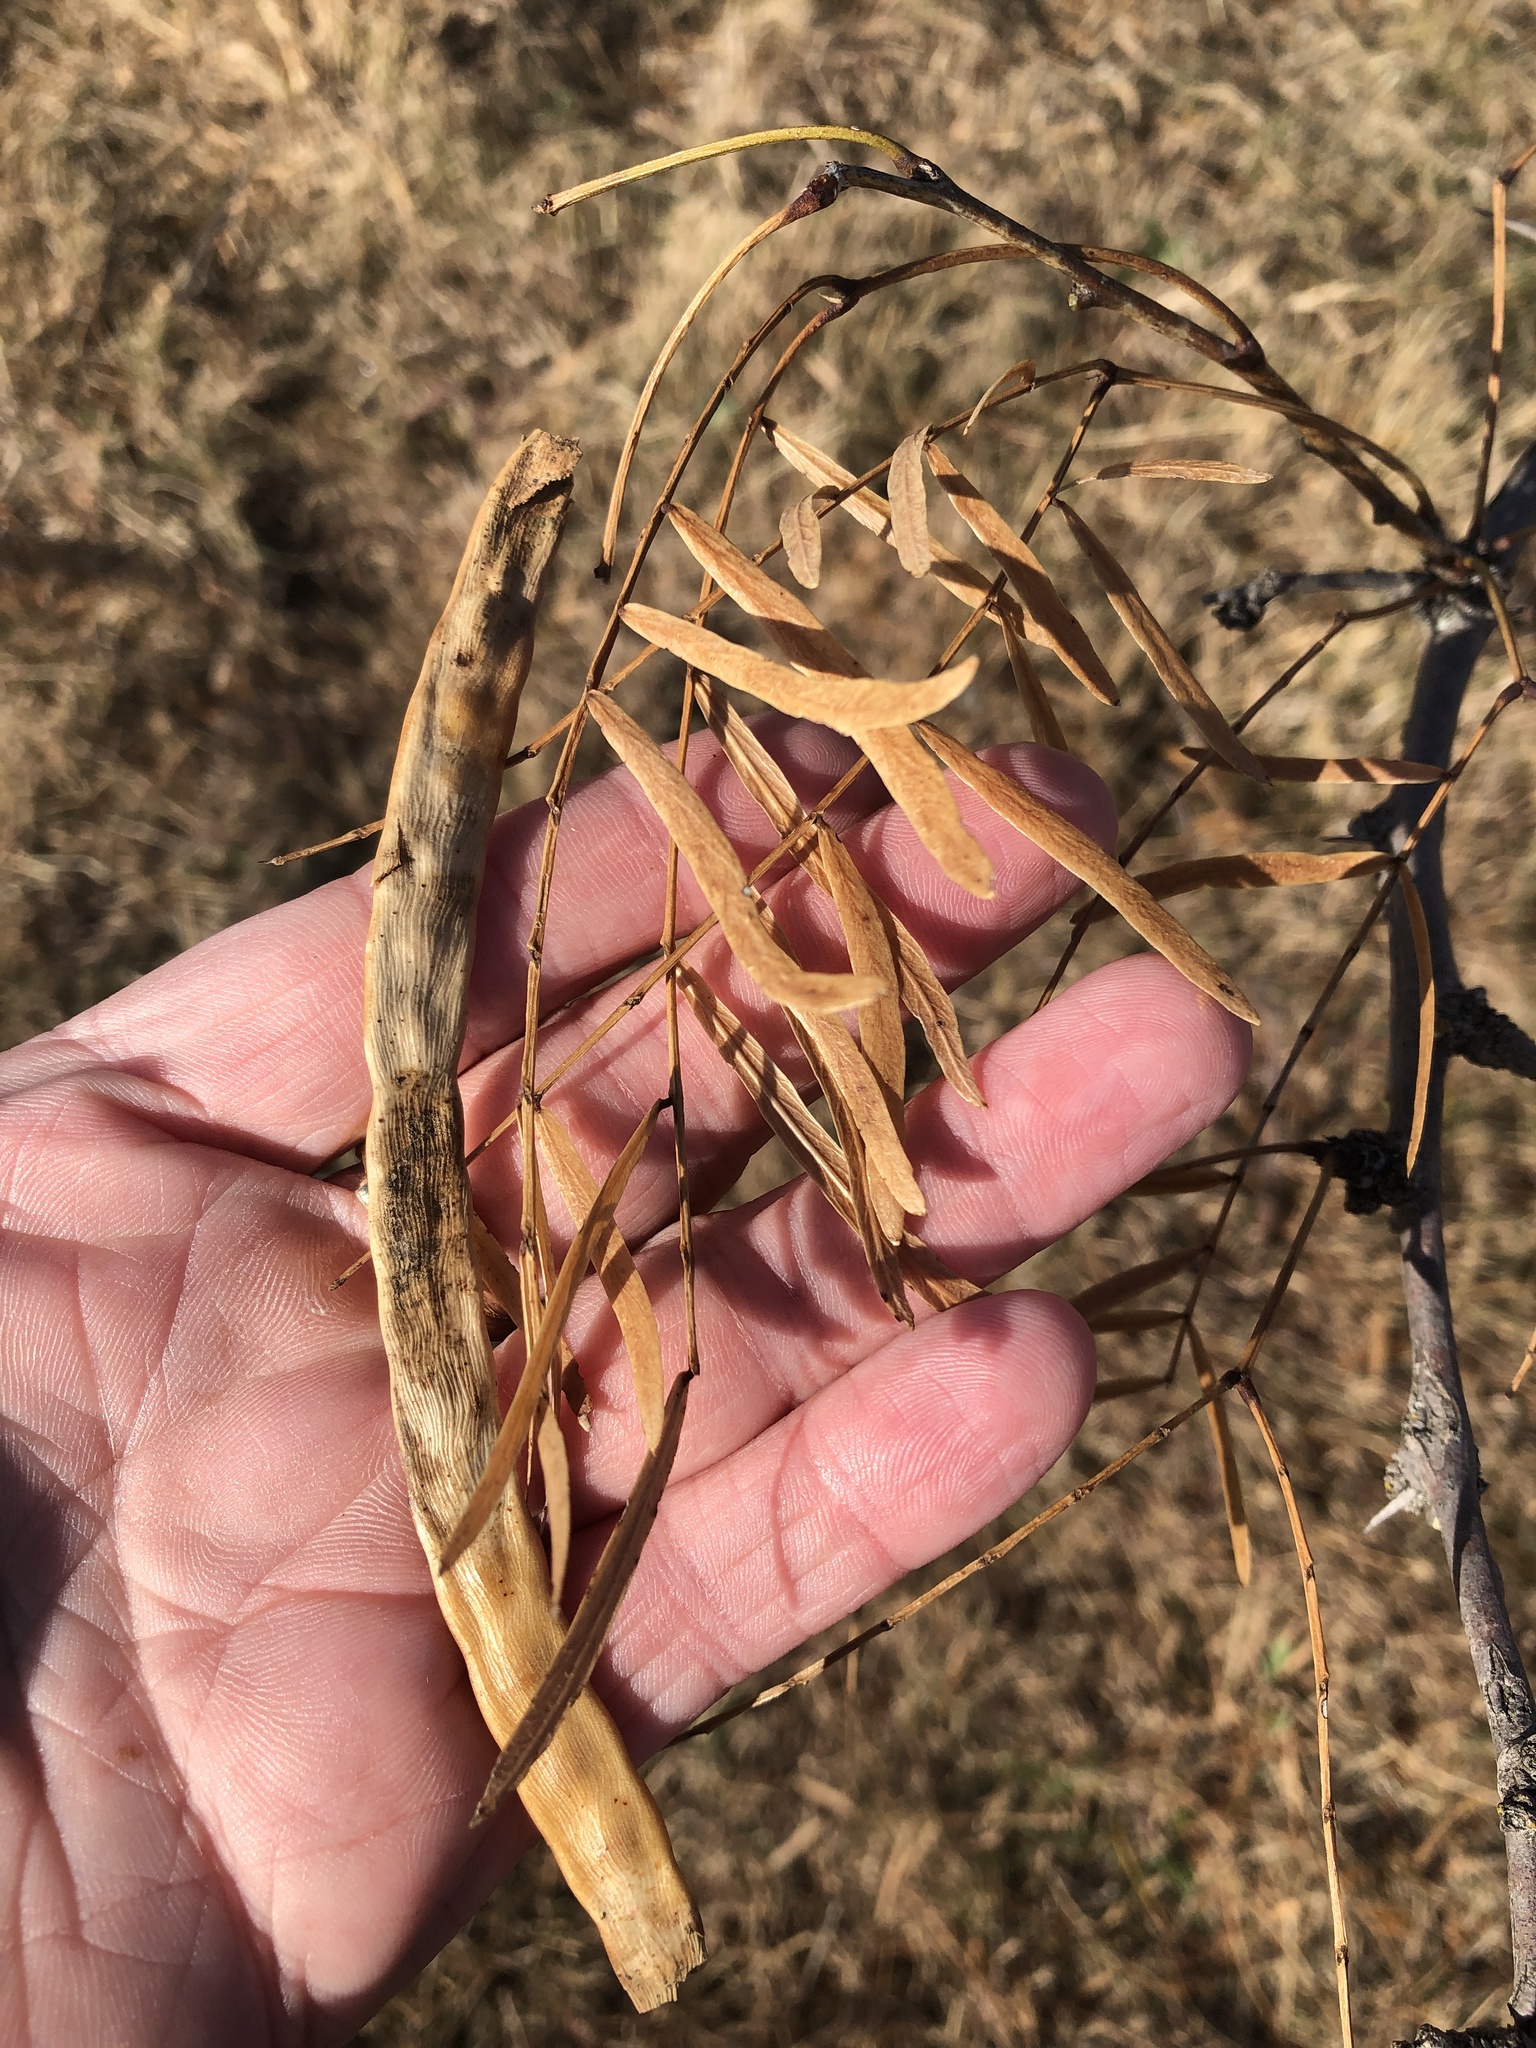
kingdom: Plantae
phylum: Tracheophyta
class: Magnoliopsida
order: Fabales
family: Fabaceae
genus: Prosopis
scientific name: Prosopis glandulosa
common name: Honey mesquite
